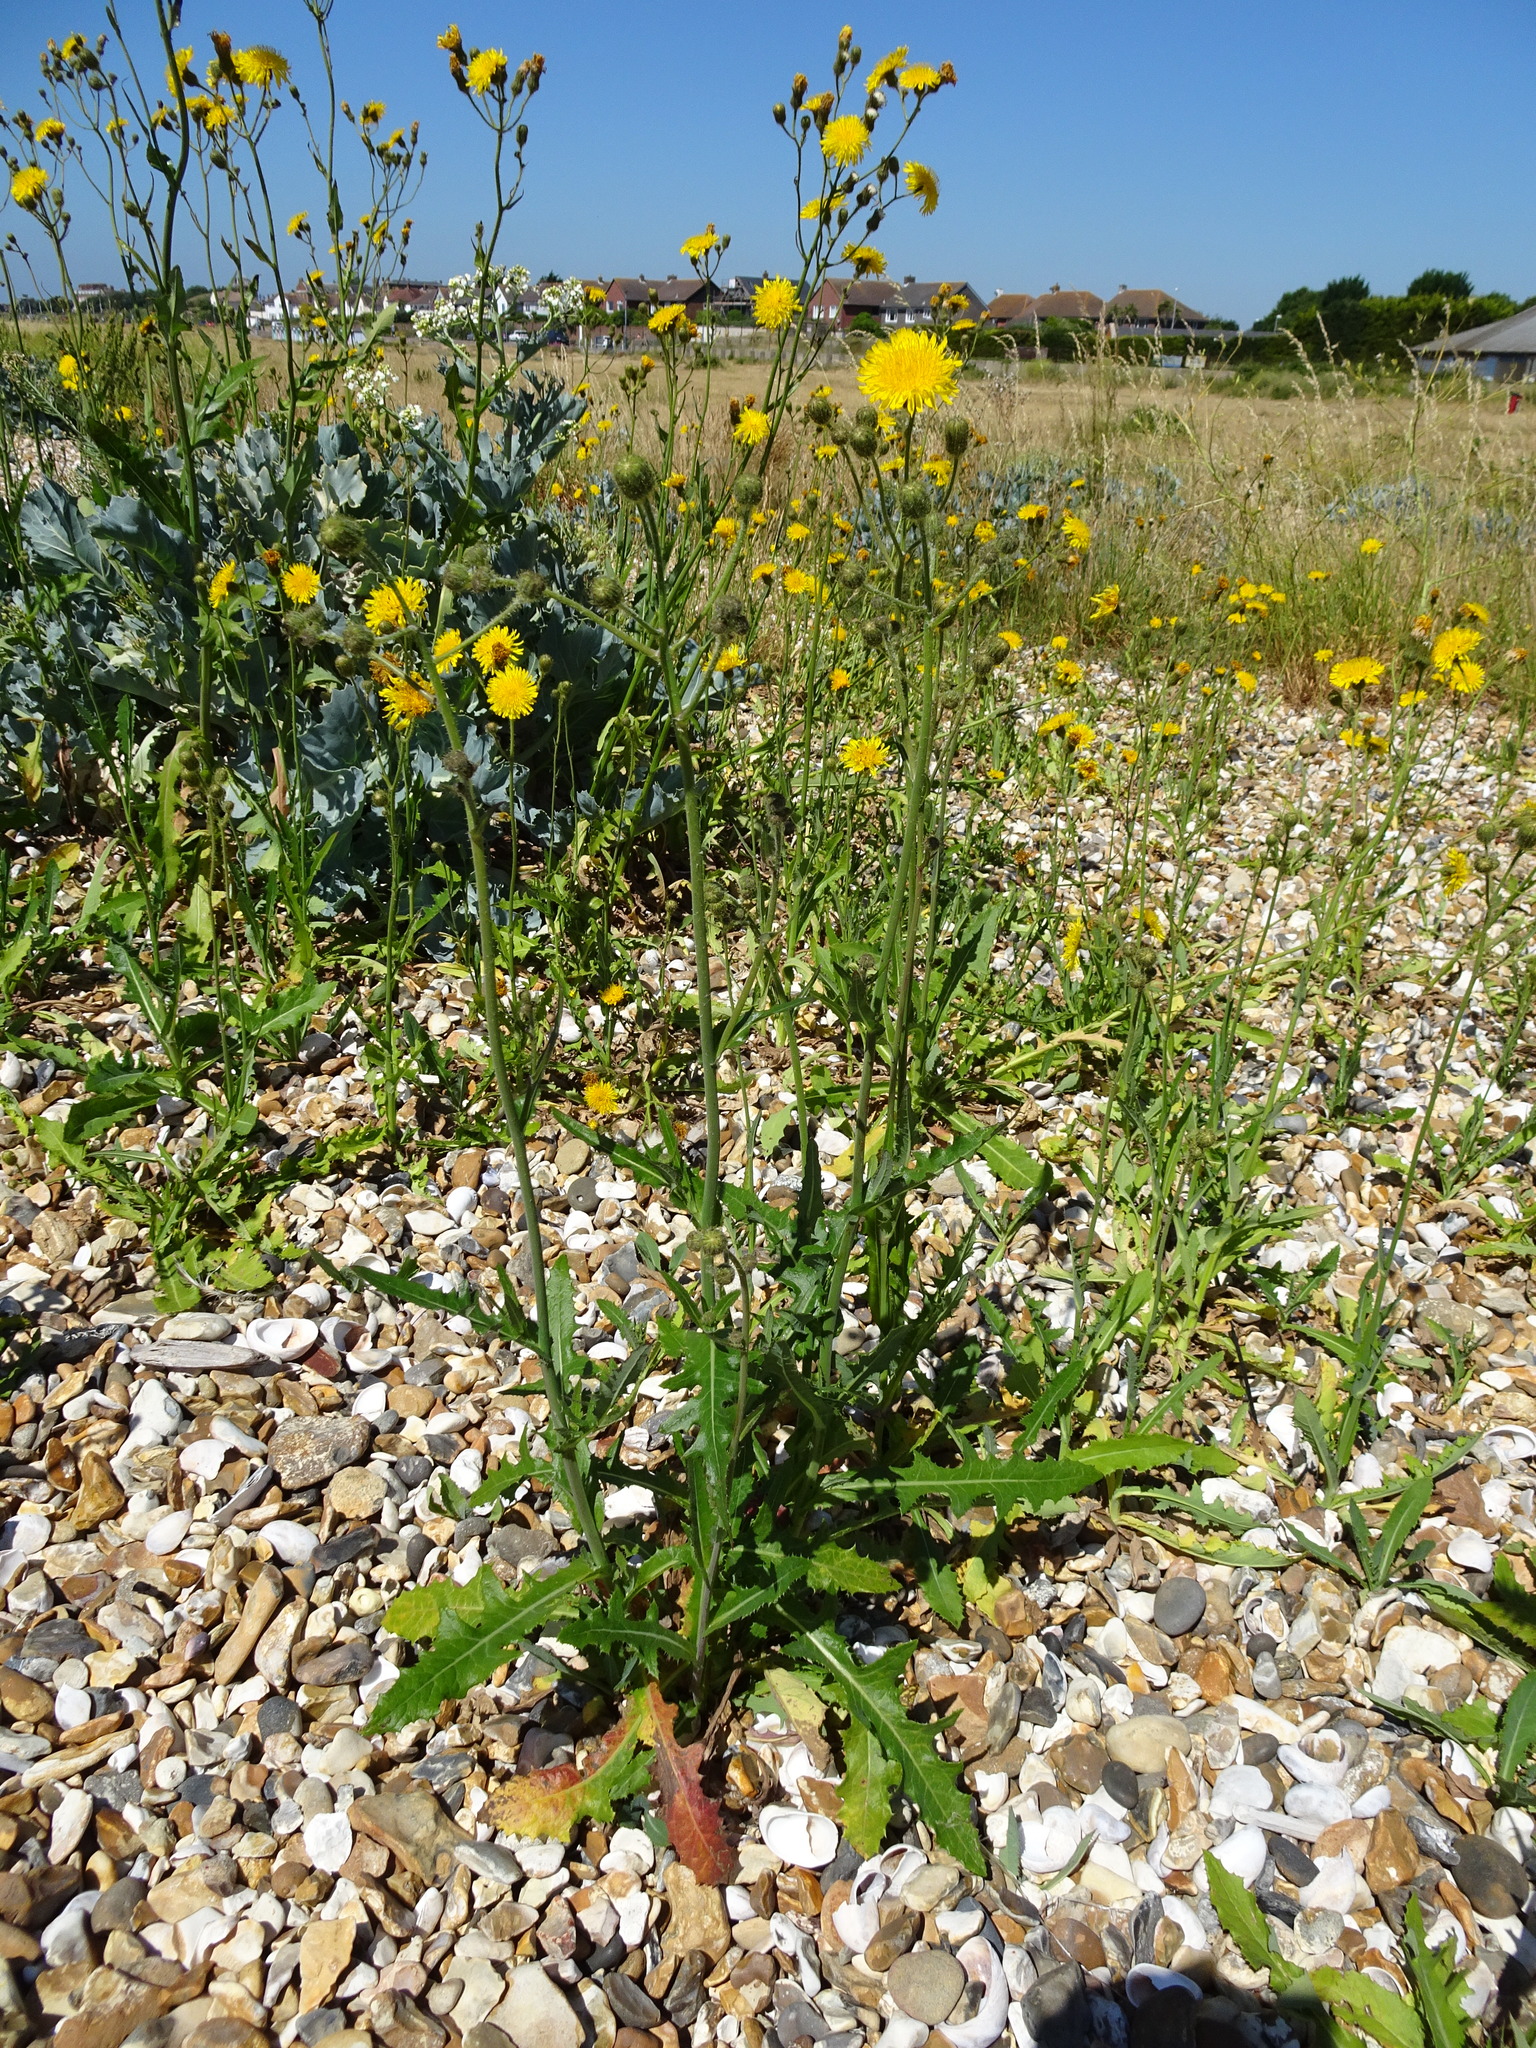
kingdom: Plantae
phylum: Tracheophyta
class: Magnoliopsida
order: Asterales
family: Asteraceae
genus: Sonchus
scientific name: Sonchus arvensis
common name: Perennial sow-thistle
